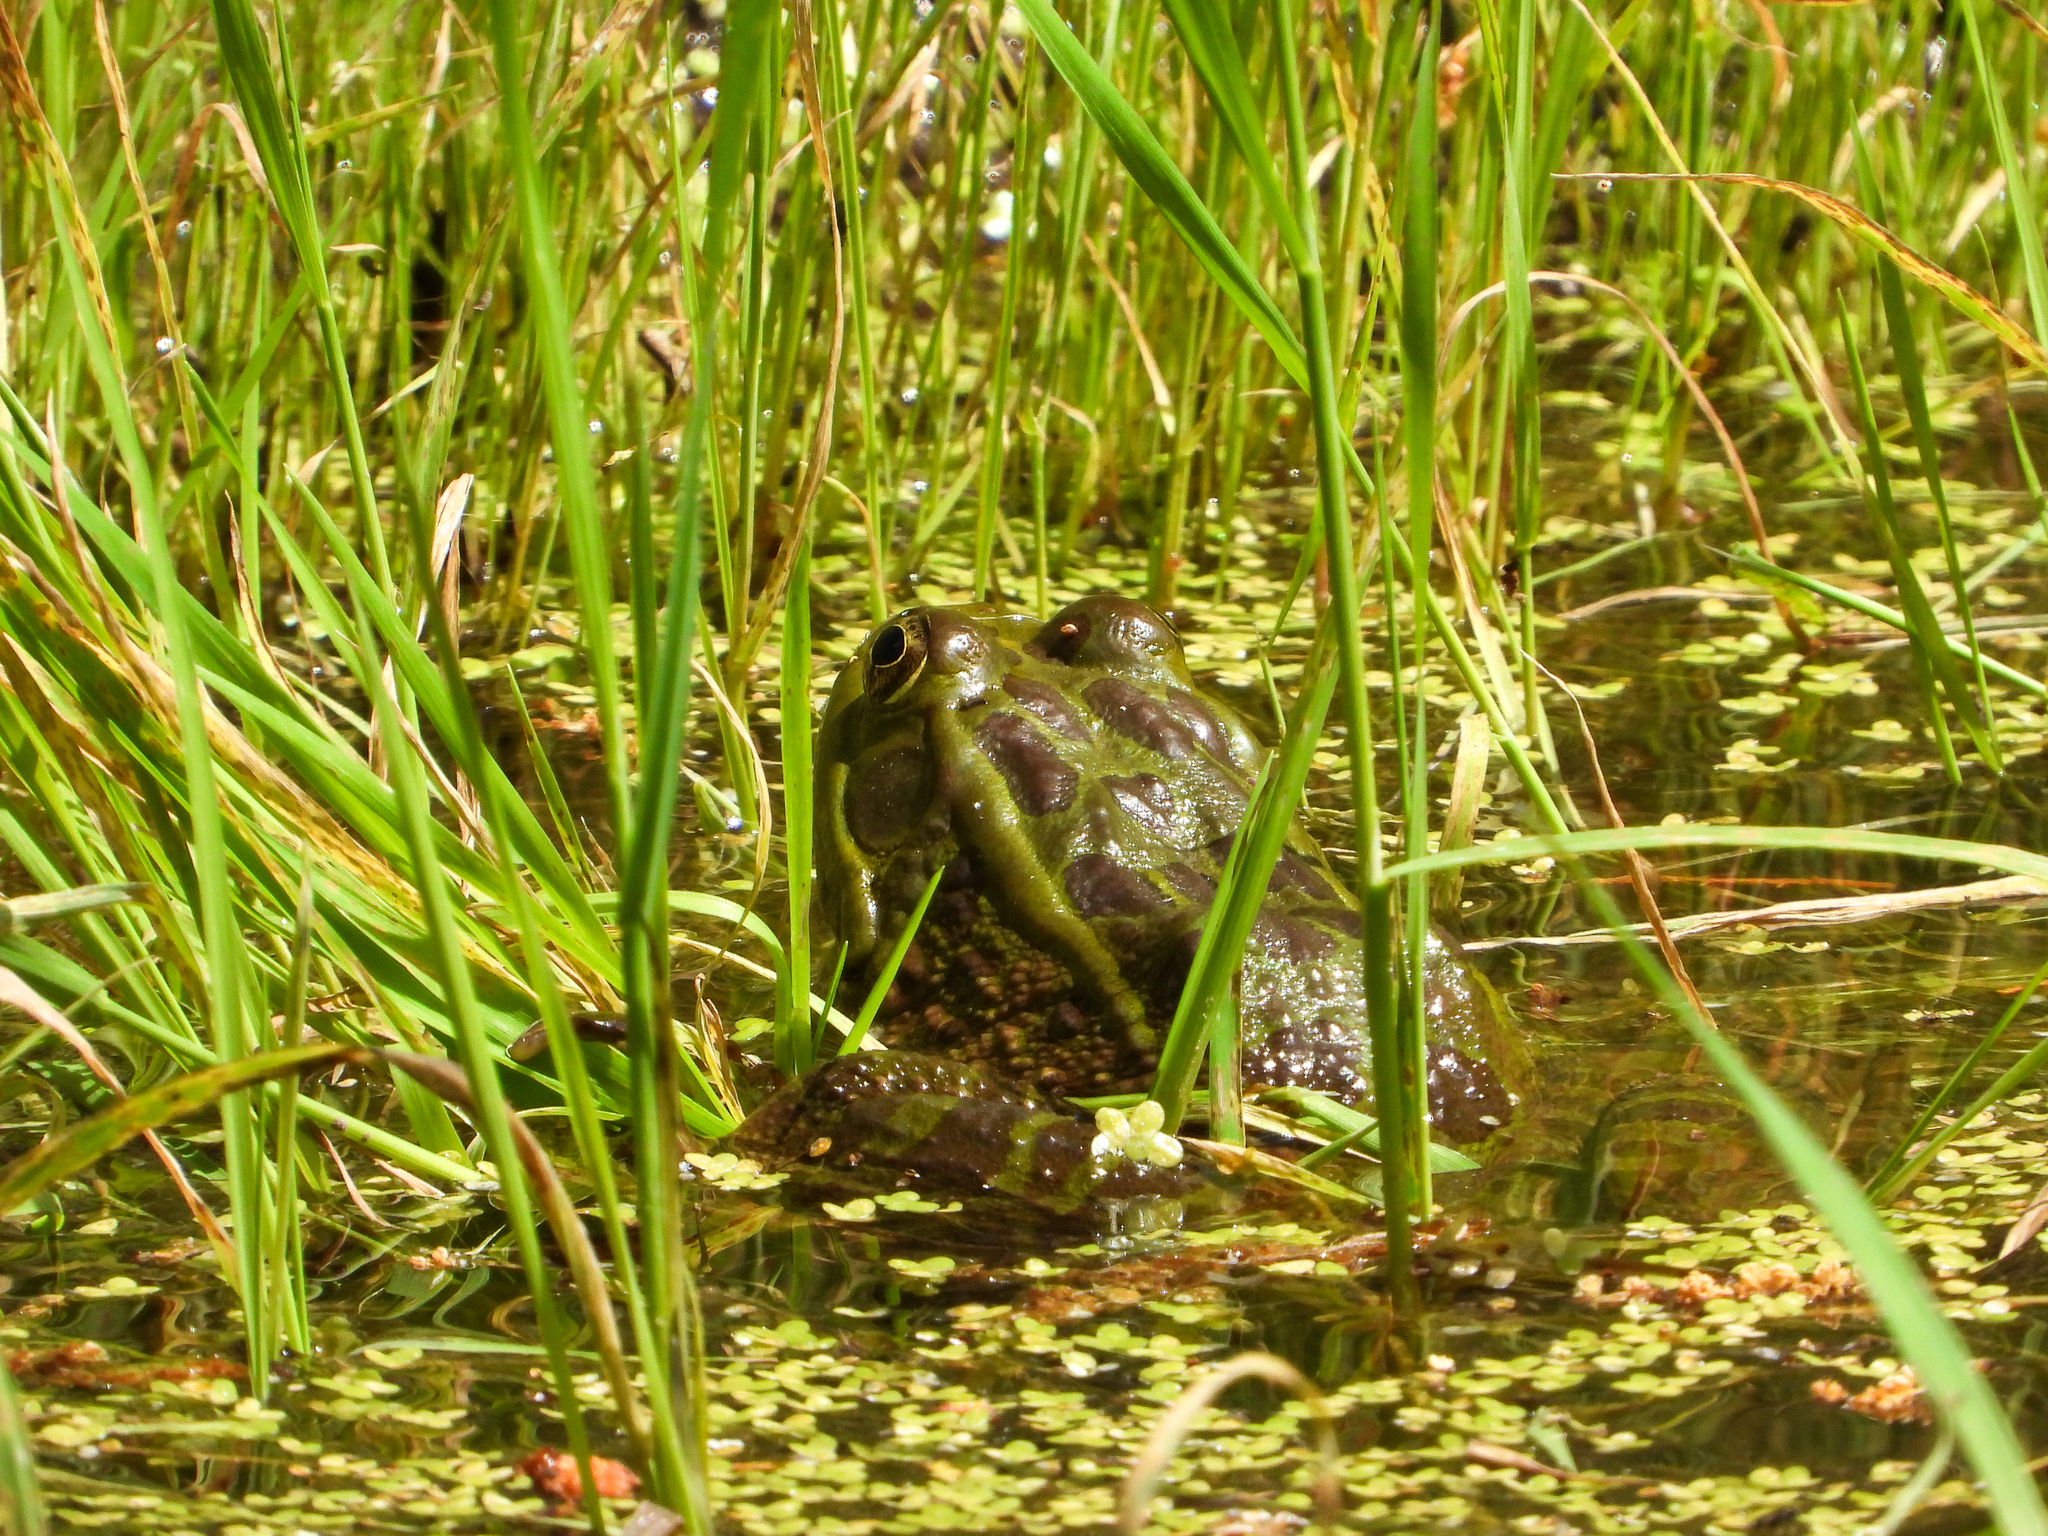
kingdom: Animalia
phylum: Chordata
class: Amphibia
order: Anura
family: Ranidae
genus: Lithobates
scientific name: Lithobates chiricahuensis
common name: Chiricahua leopard frog
